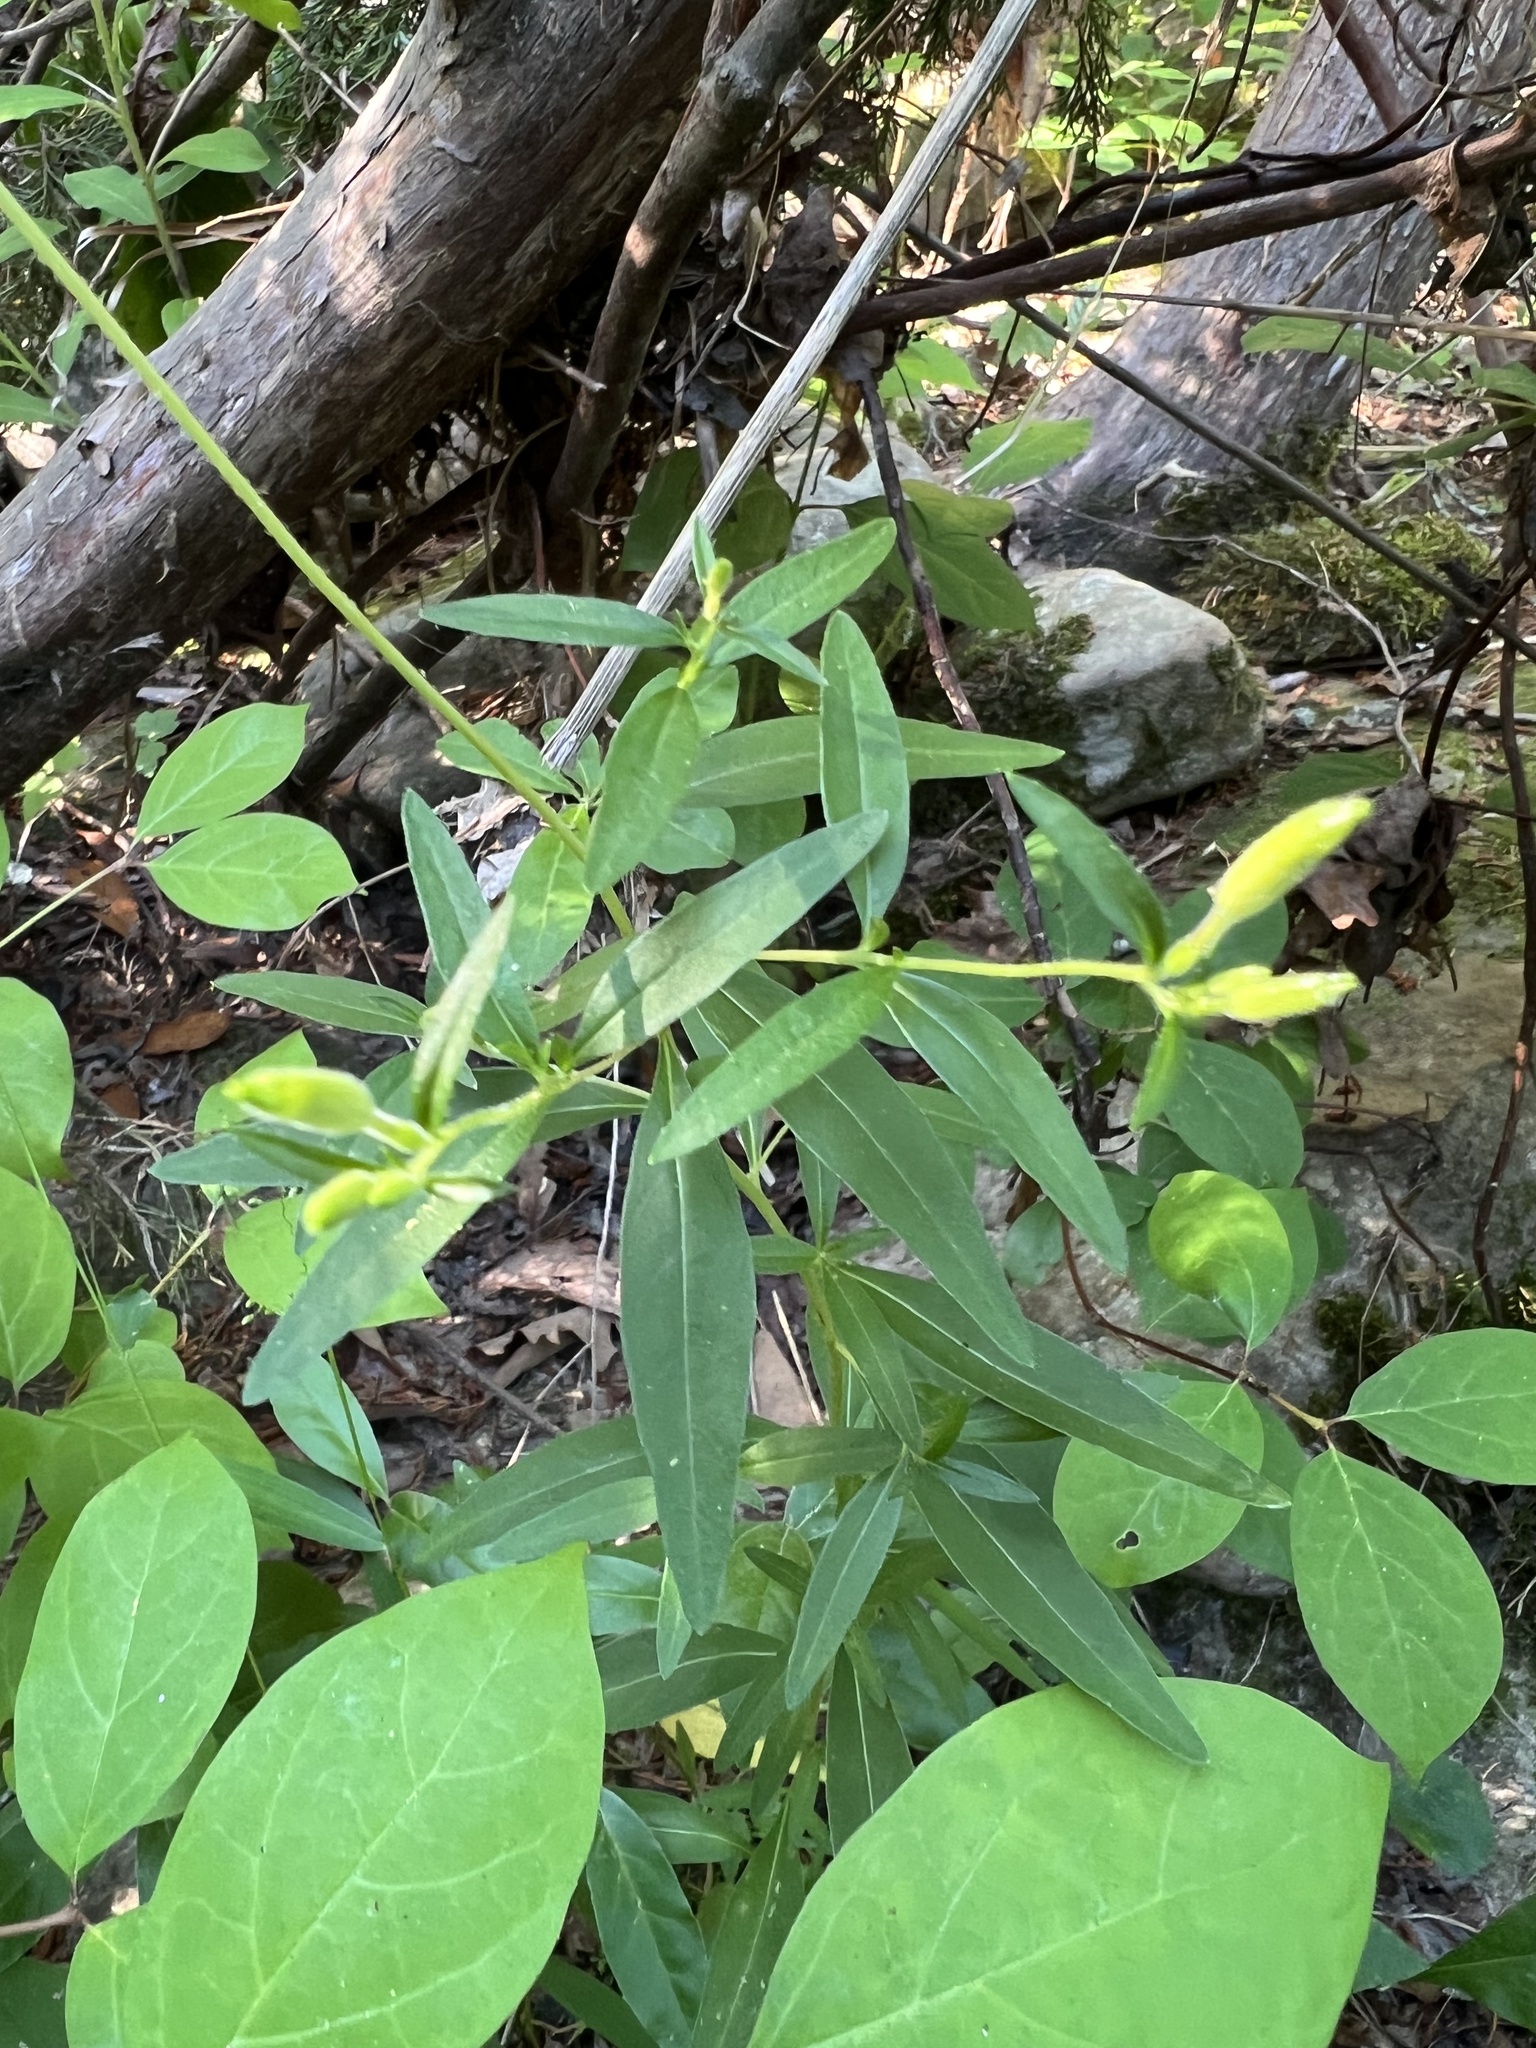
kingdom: Plantae
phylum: Tracheophyta
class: Magnoliopsida
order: Myrtales
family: Onagraceae
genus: Oenothera
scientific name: Oenothera tetragona
